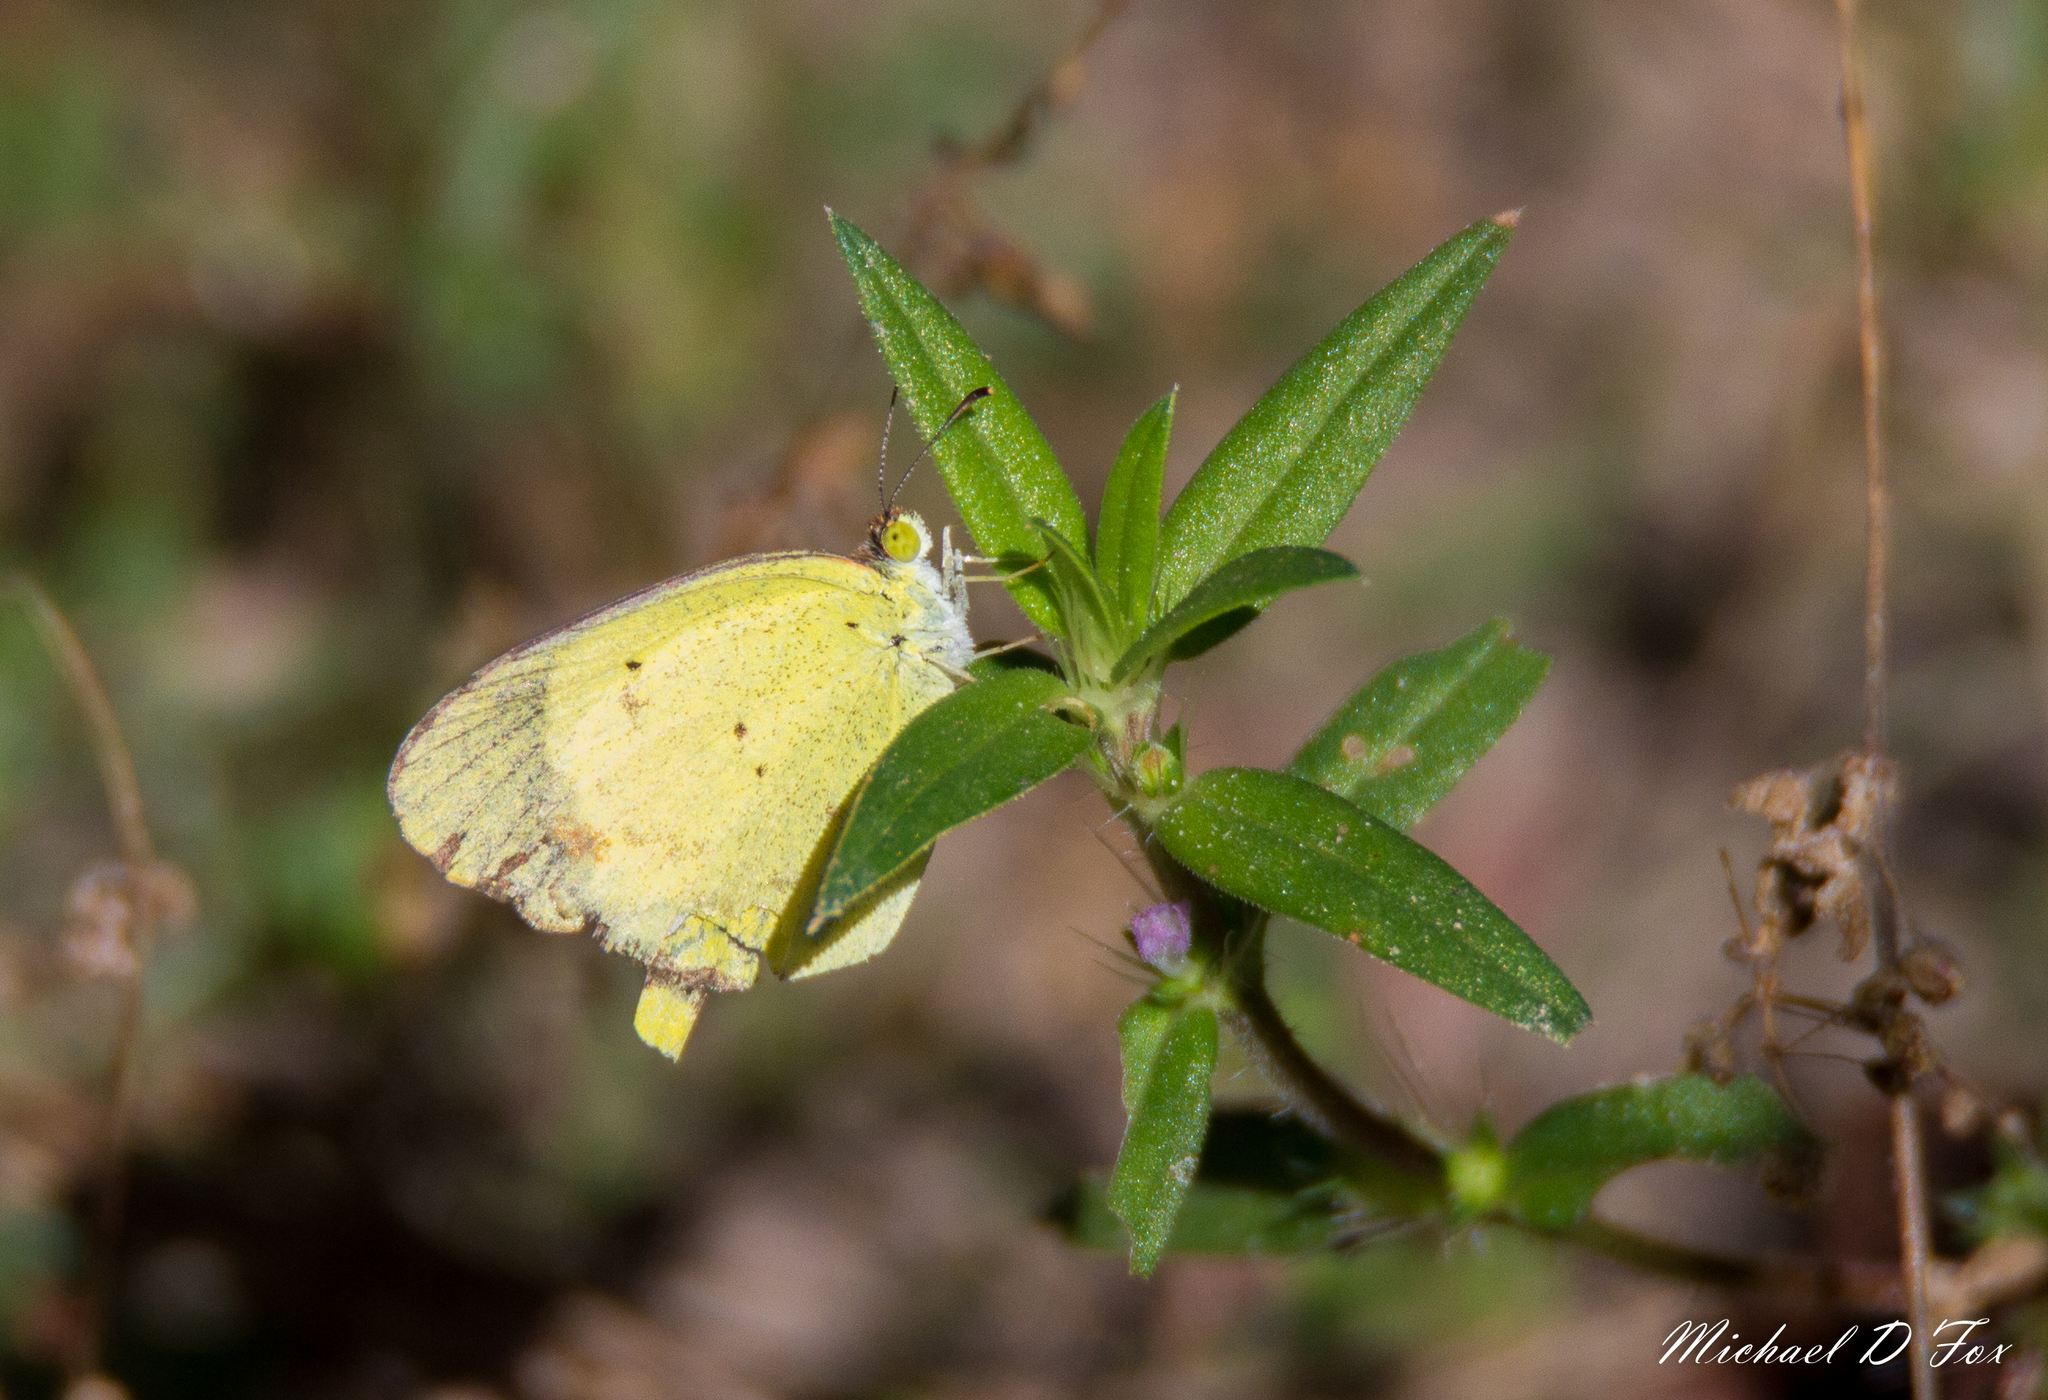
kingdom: Animalia
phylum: Arthropoda
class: Insecta
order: Lepidoptera
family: Pieridae
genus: Pyrisitia
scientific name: Pyrisitia lisa
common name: Little yellow
